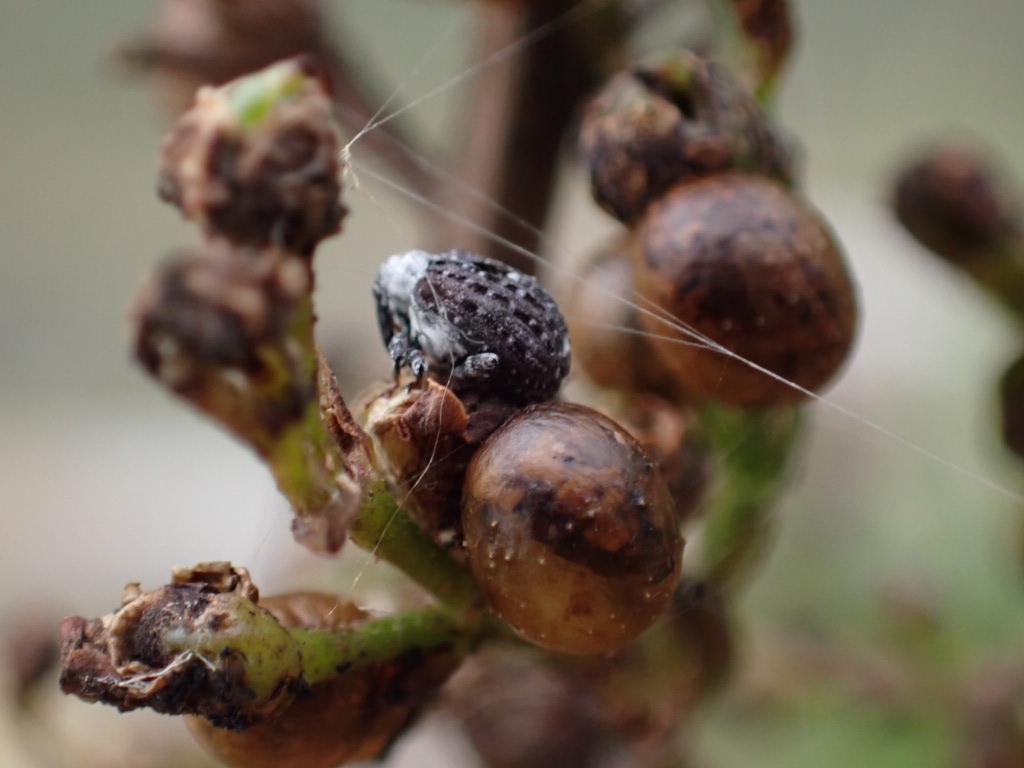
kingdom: Animalia
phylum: Arthropoda
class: Insecta
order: Coleoptera
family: Curculionidae
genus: Cionus
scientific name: Cionus scrophulariae
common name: Common figwort weevil
